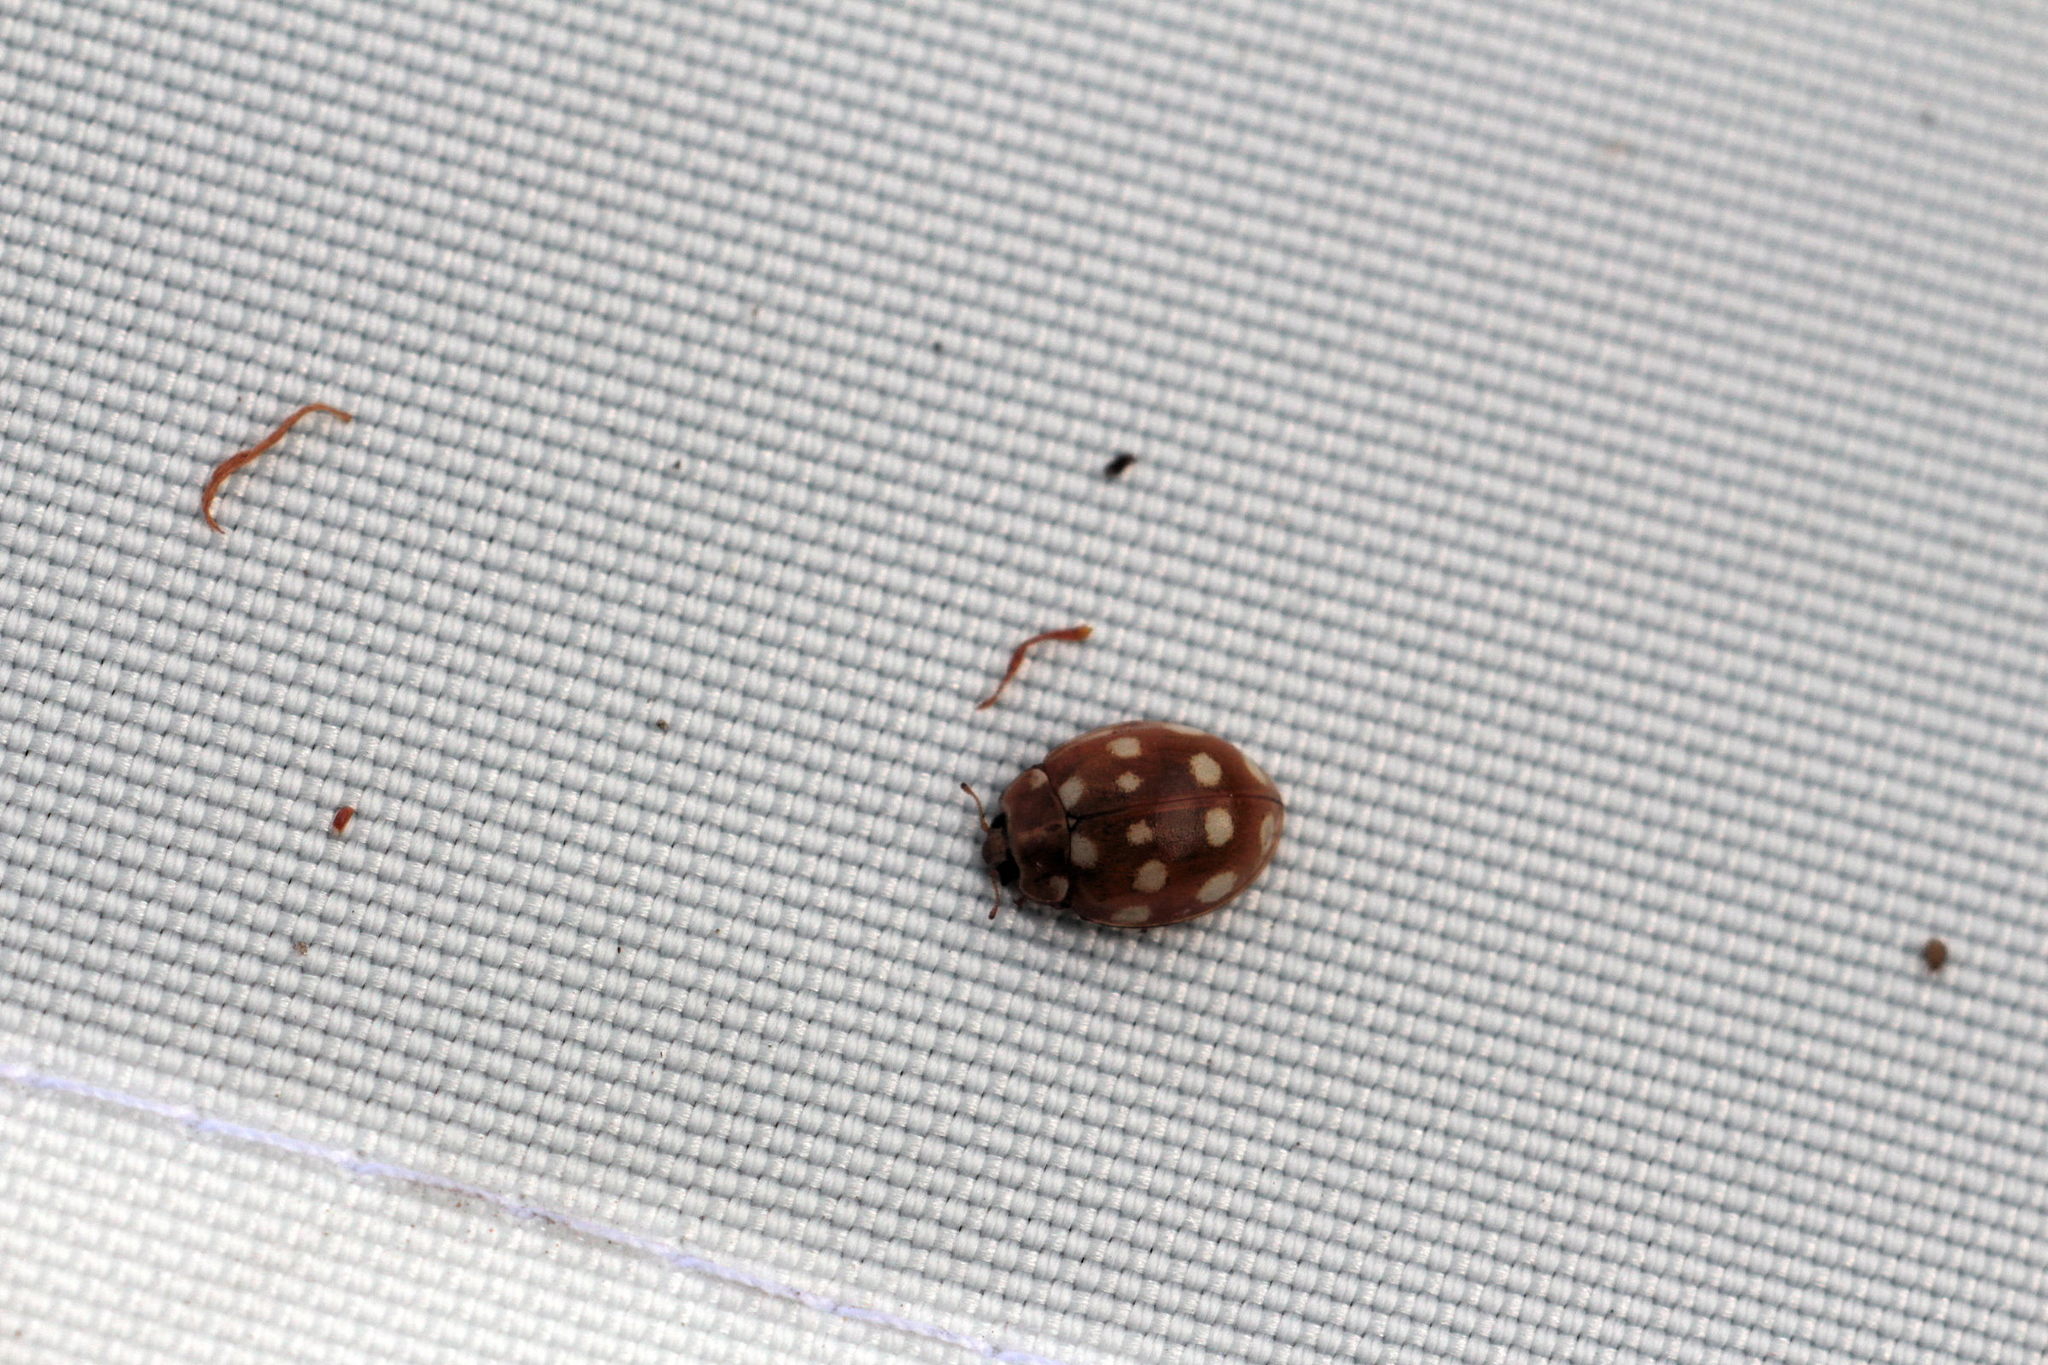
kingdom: Animalia
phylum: Arthropoda
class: Insecta
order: Coleoptera
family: Coccinellidae
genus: Calvia
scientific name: Calvia quatuordecimguttata
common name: Cream-spot ladybird
